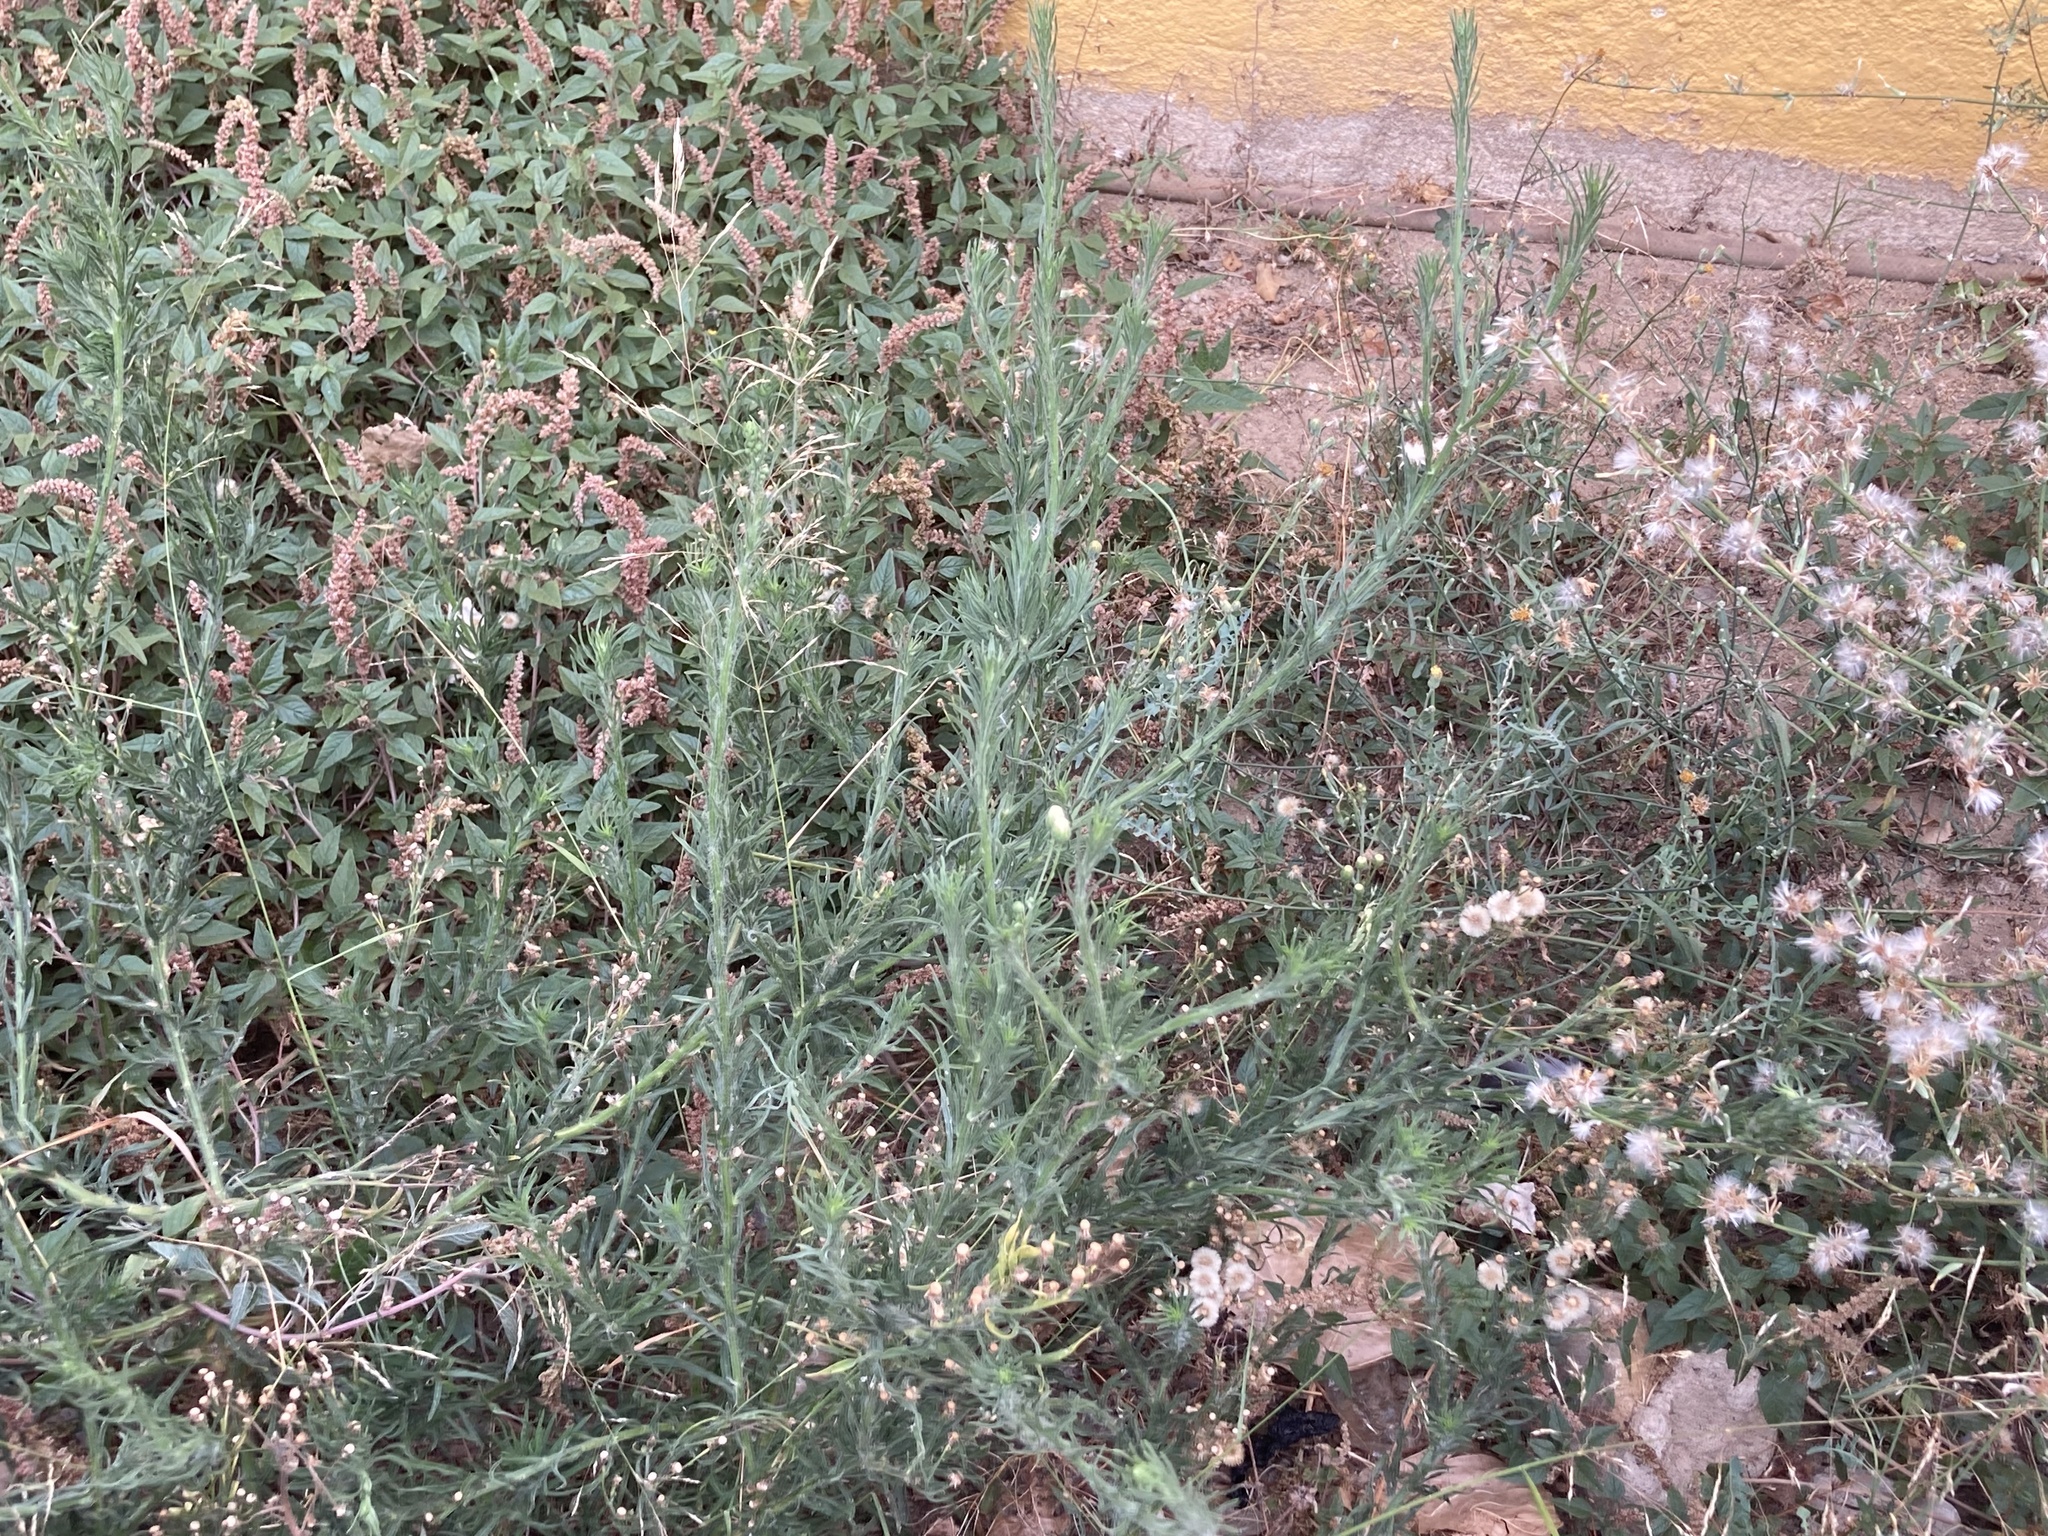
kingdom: Plantae
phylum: Tracheophyta
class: Magnoliopsida
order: Asterales
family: Asteraceae
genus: Erigeron
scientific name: Erigeron bonariensis
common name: Argentine fleabane
